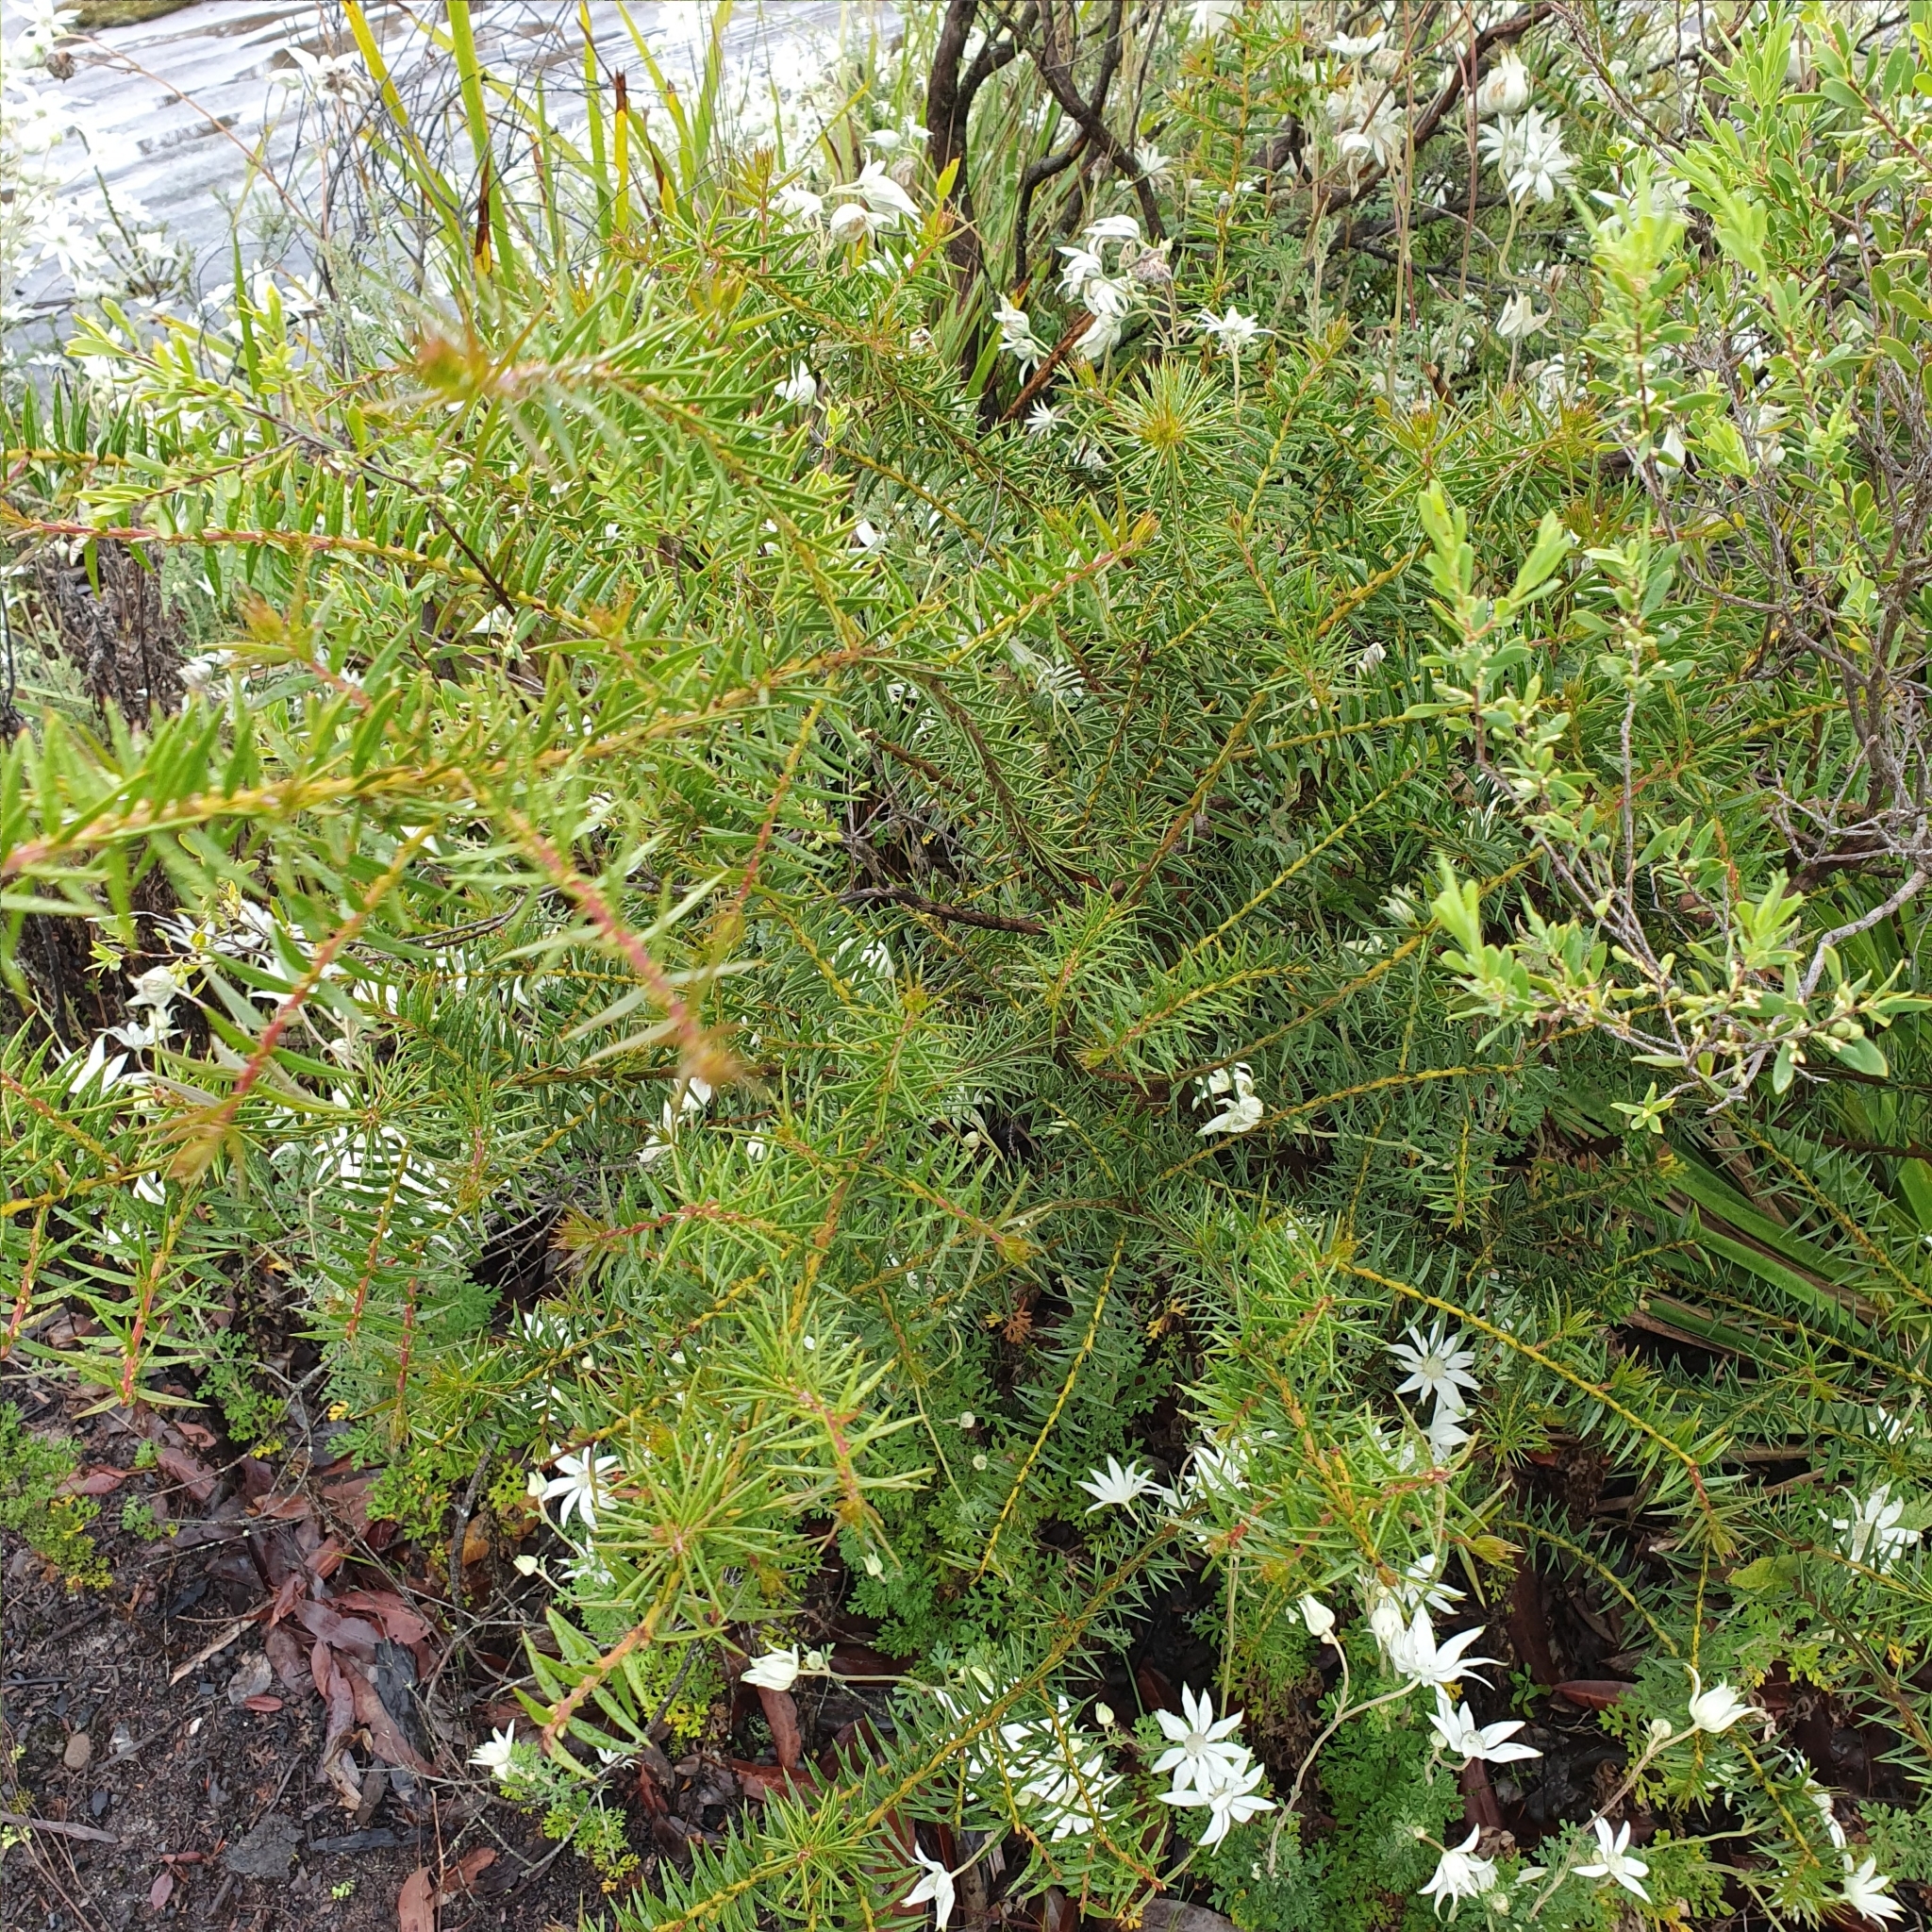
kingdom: Plantae
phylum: Tracheophyta
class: Magnoliopsida
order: Fabales
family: Fabaceae
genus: Acacia
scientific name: Acacia oxycedrus
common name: Spike wattle
